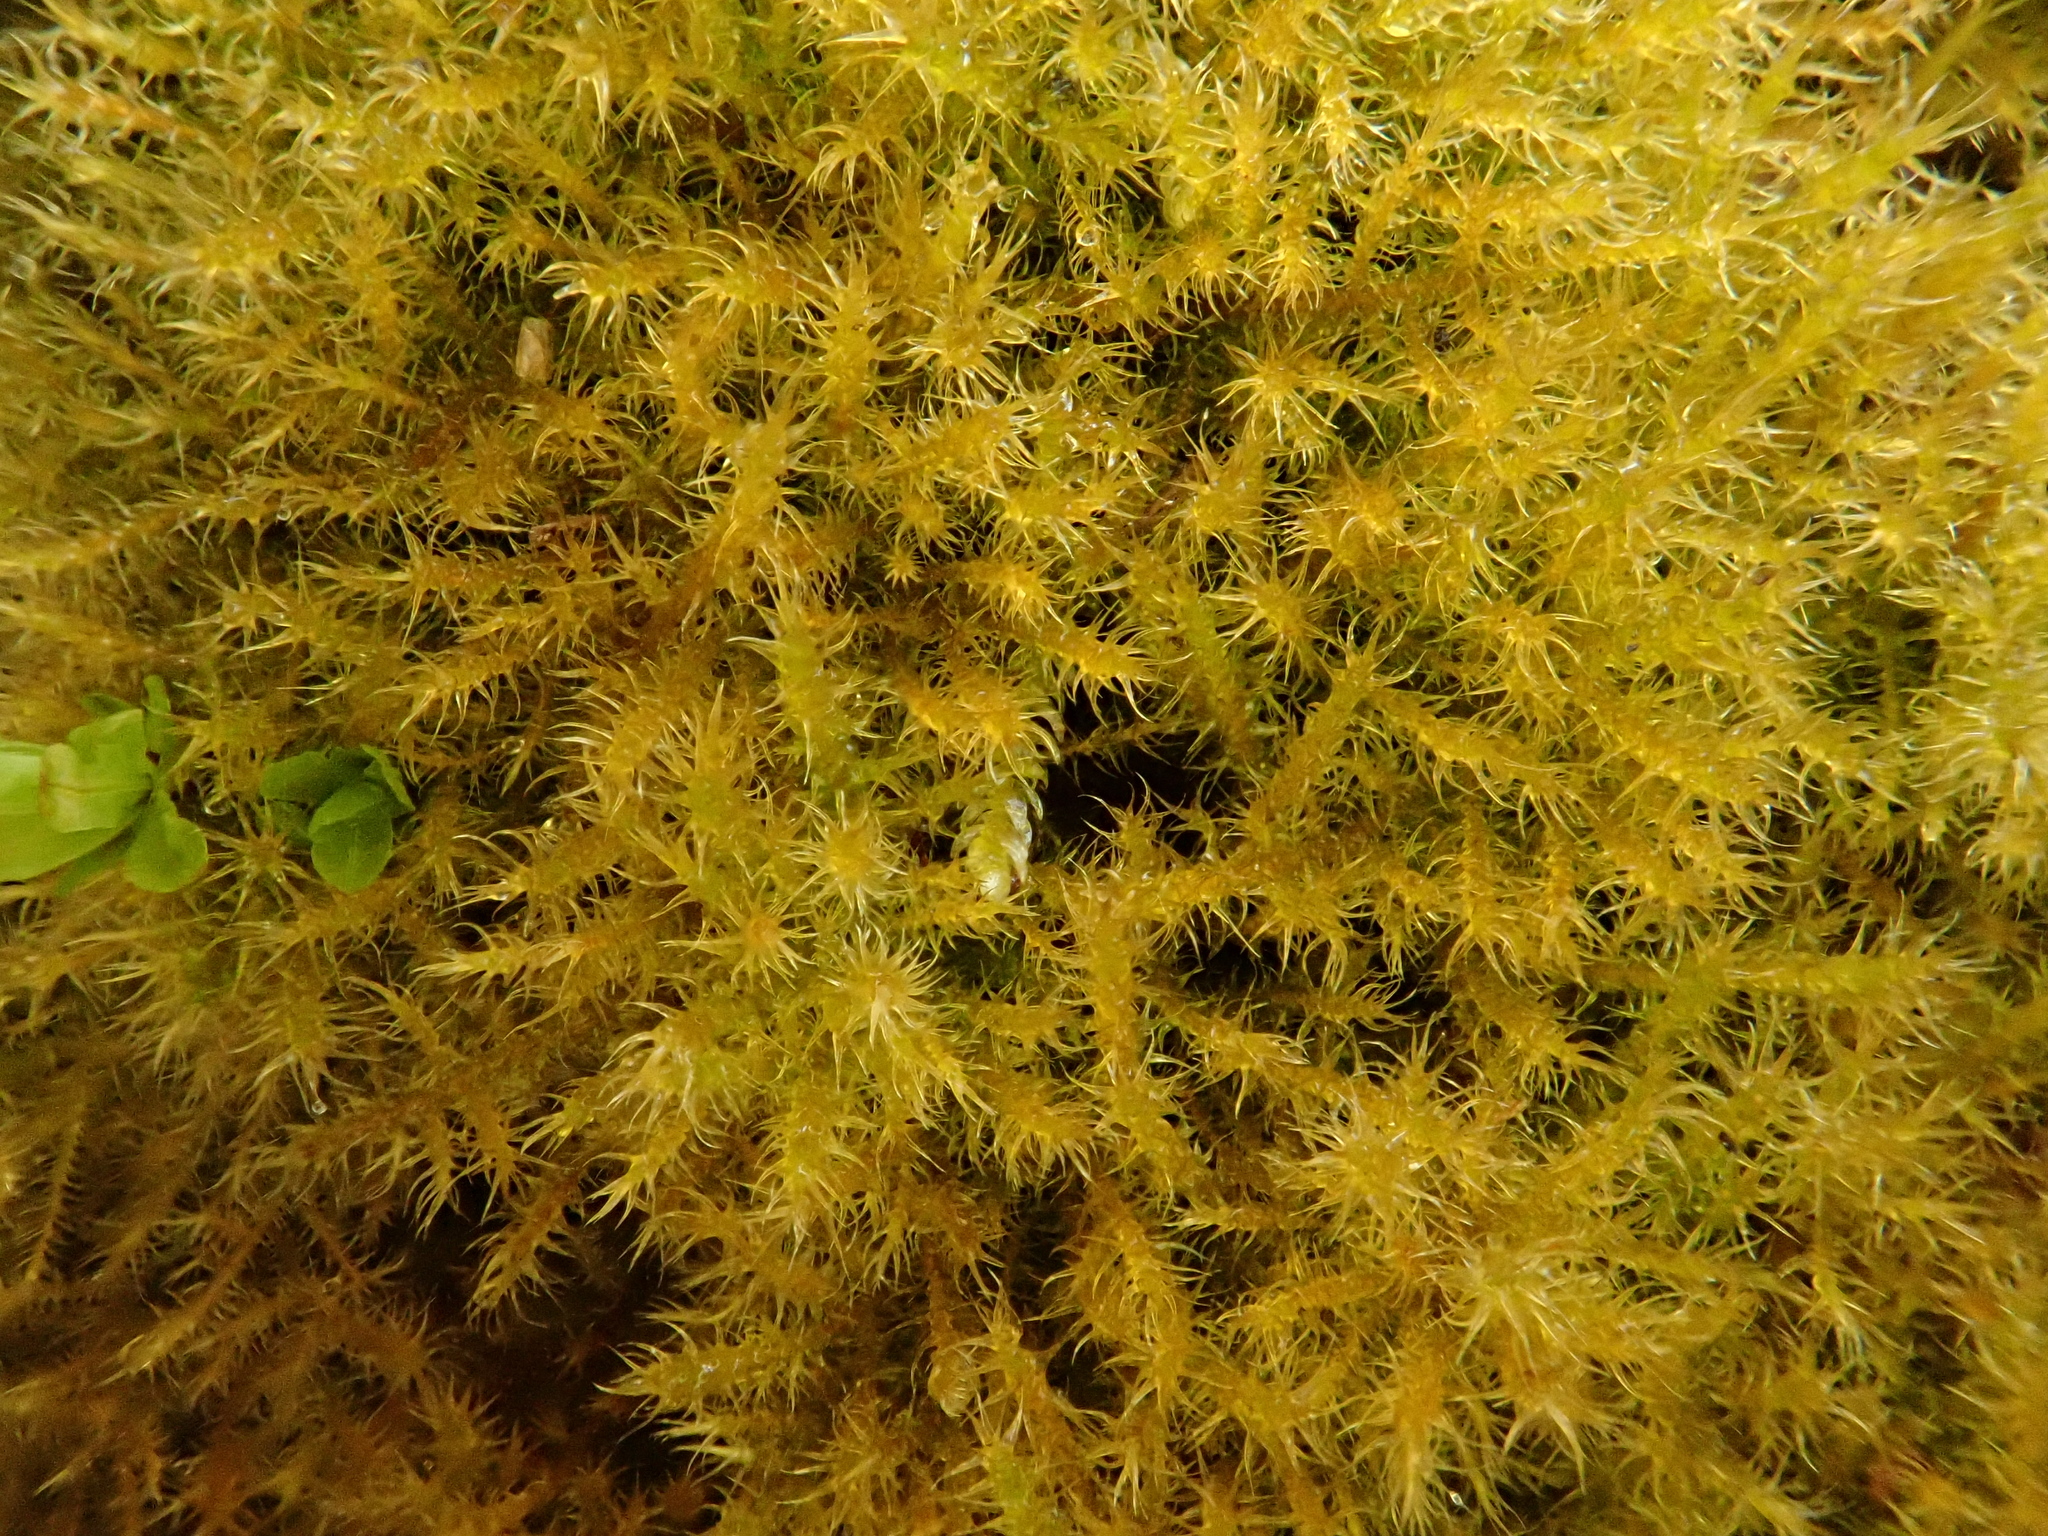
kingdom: Plantae
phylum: Bryophyta
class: Bryopsida
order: Hypnales
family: Amblystegiaceae
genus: Campylium
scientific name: Campylium chrysophyllum
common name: Goldenleaf campylium moss
